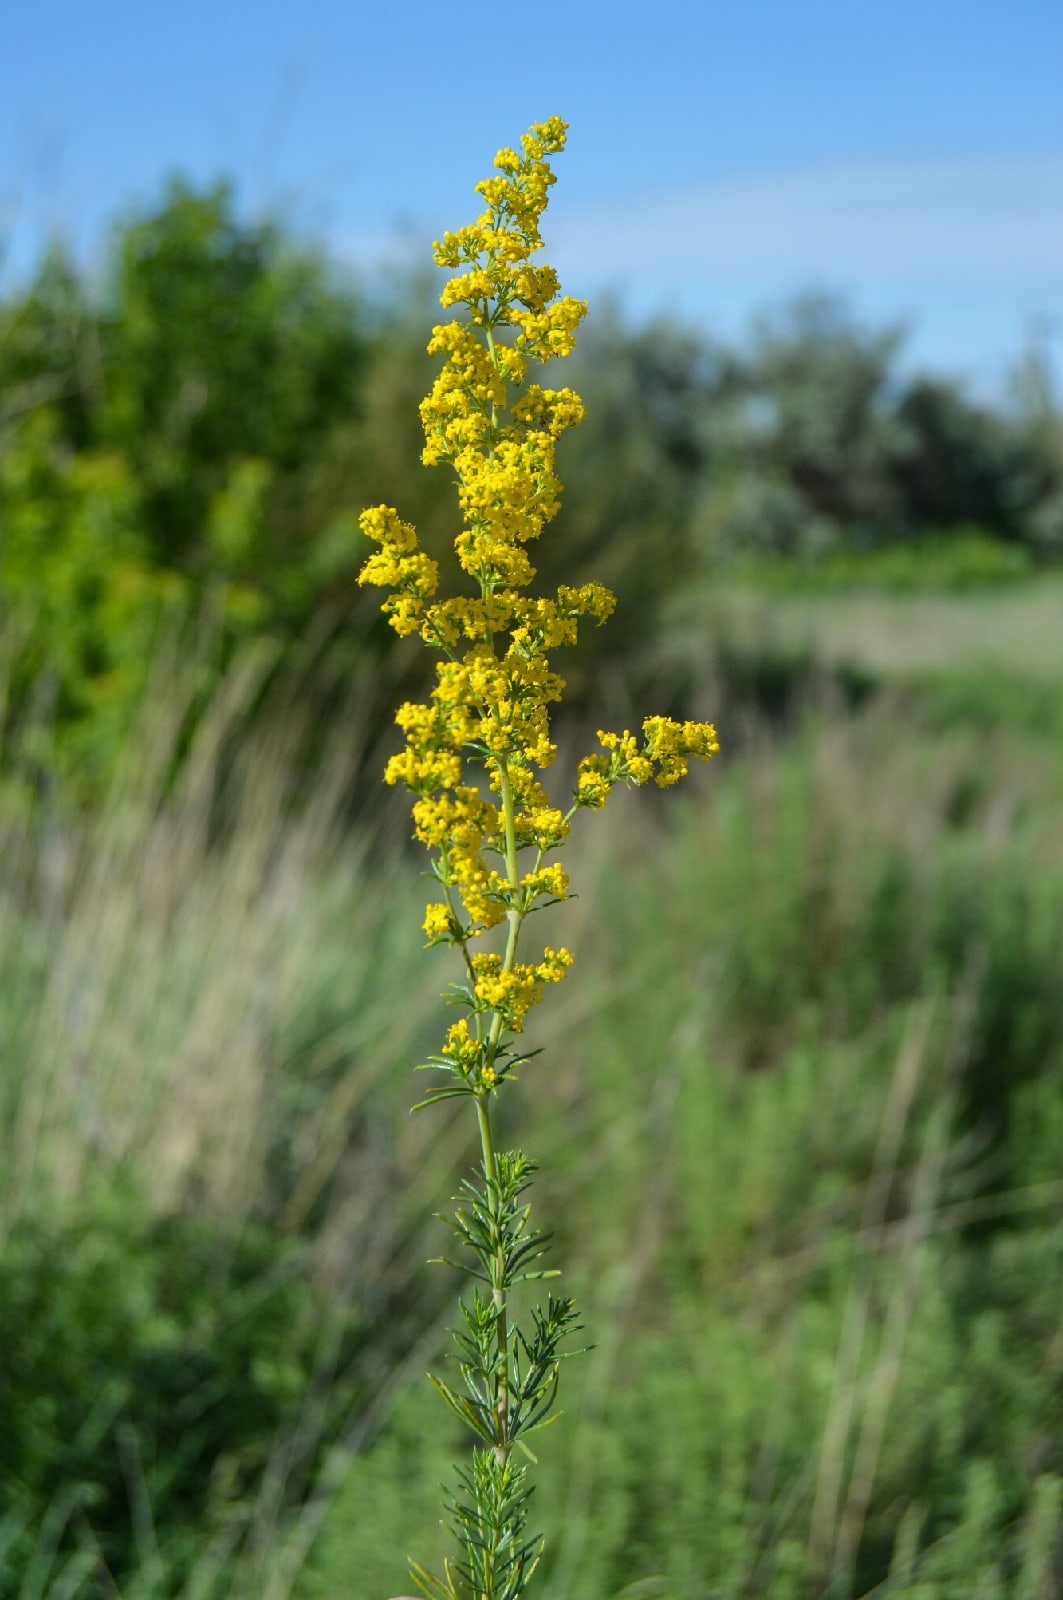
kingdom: Plantae
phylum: Tracheophyta
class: Magnoliopsida
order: Gentianales
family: Rubiaceae
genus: Galium
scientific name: Galium verum
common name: Lady's bedstraw
